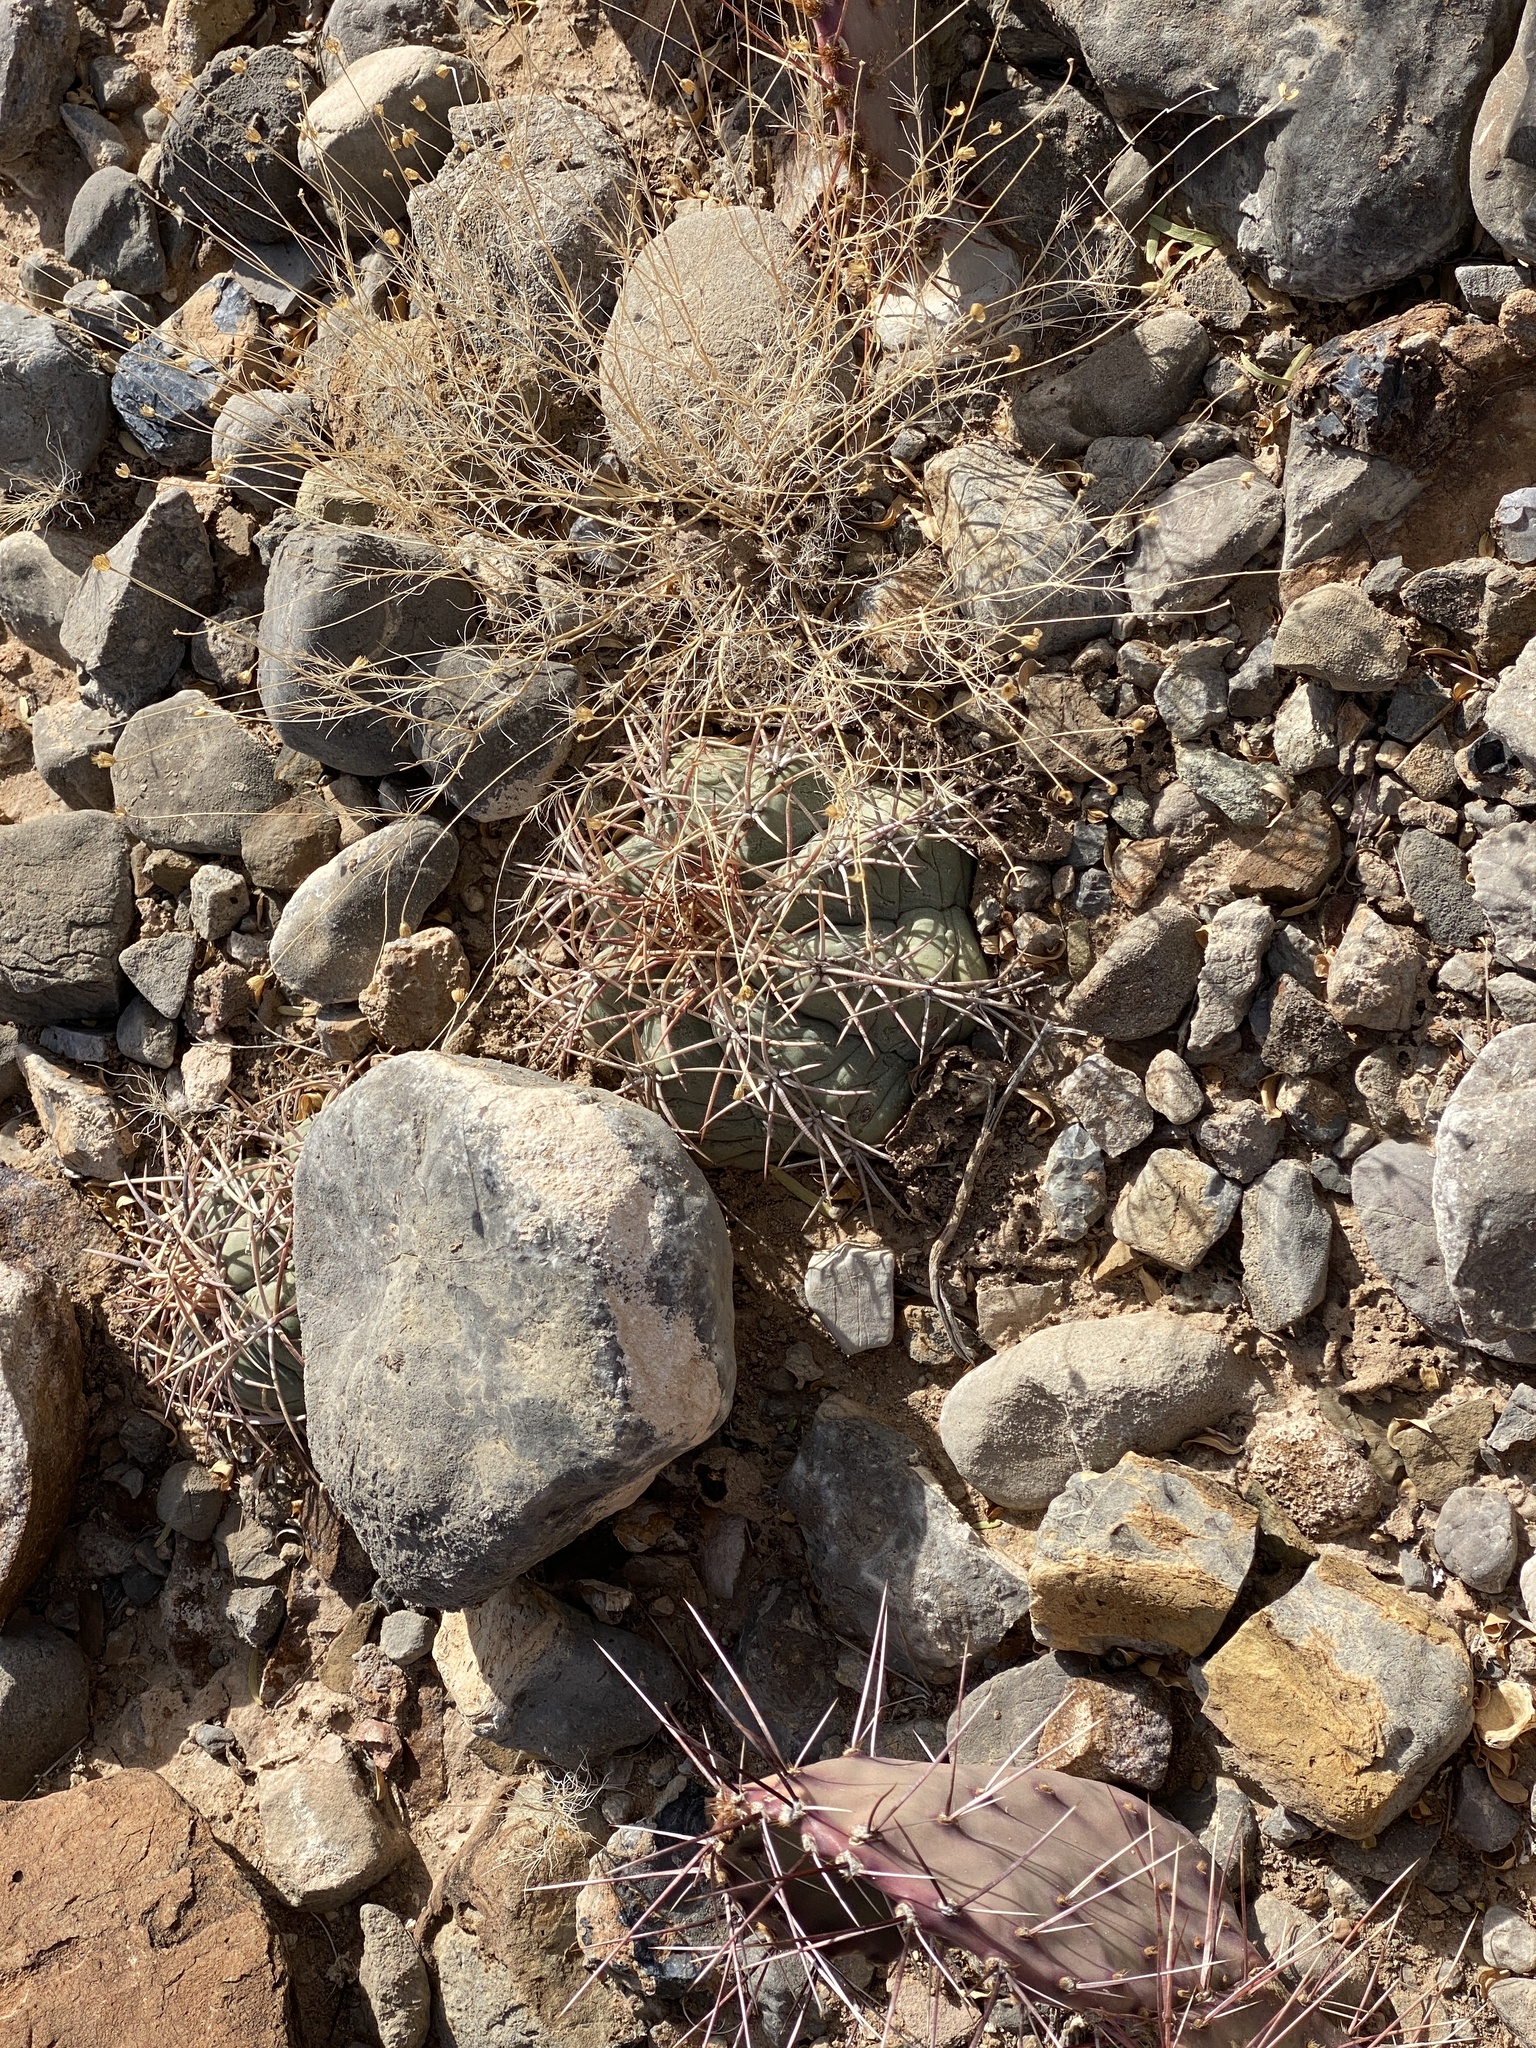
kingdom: Plantae
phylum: Tracheophyta
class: Magnoliopsida
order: Caryophyllales
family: Cactaceae
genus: Echinocactus
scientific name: Echinocactus horizonthalonius
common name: Devilshead
